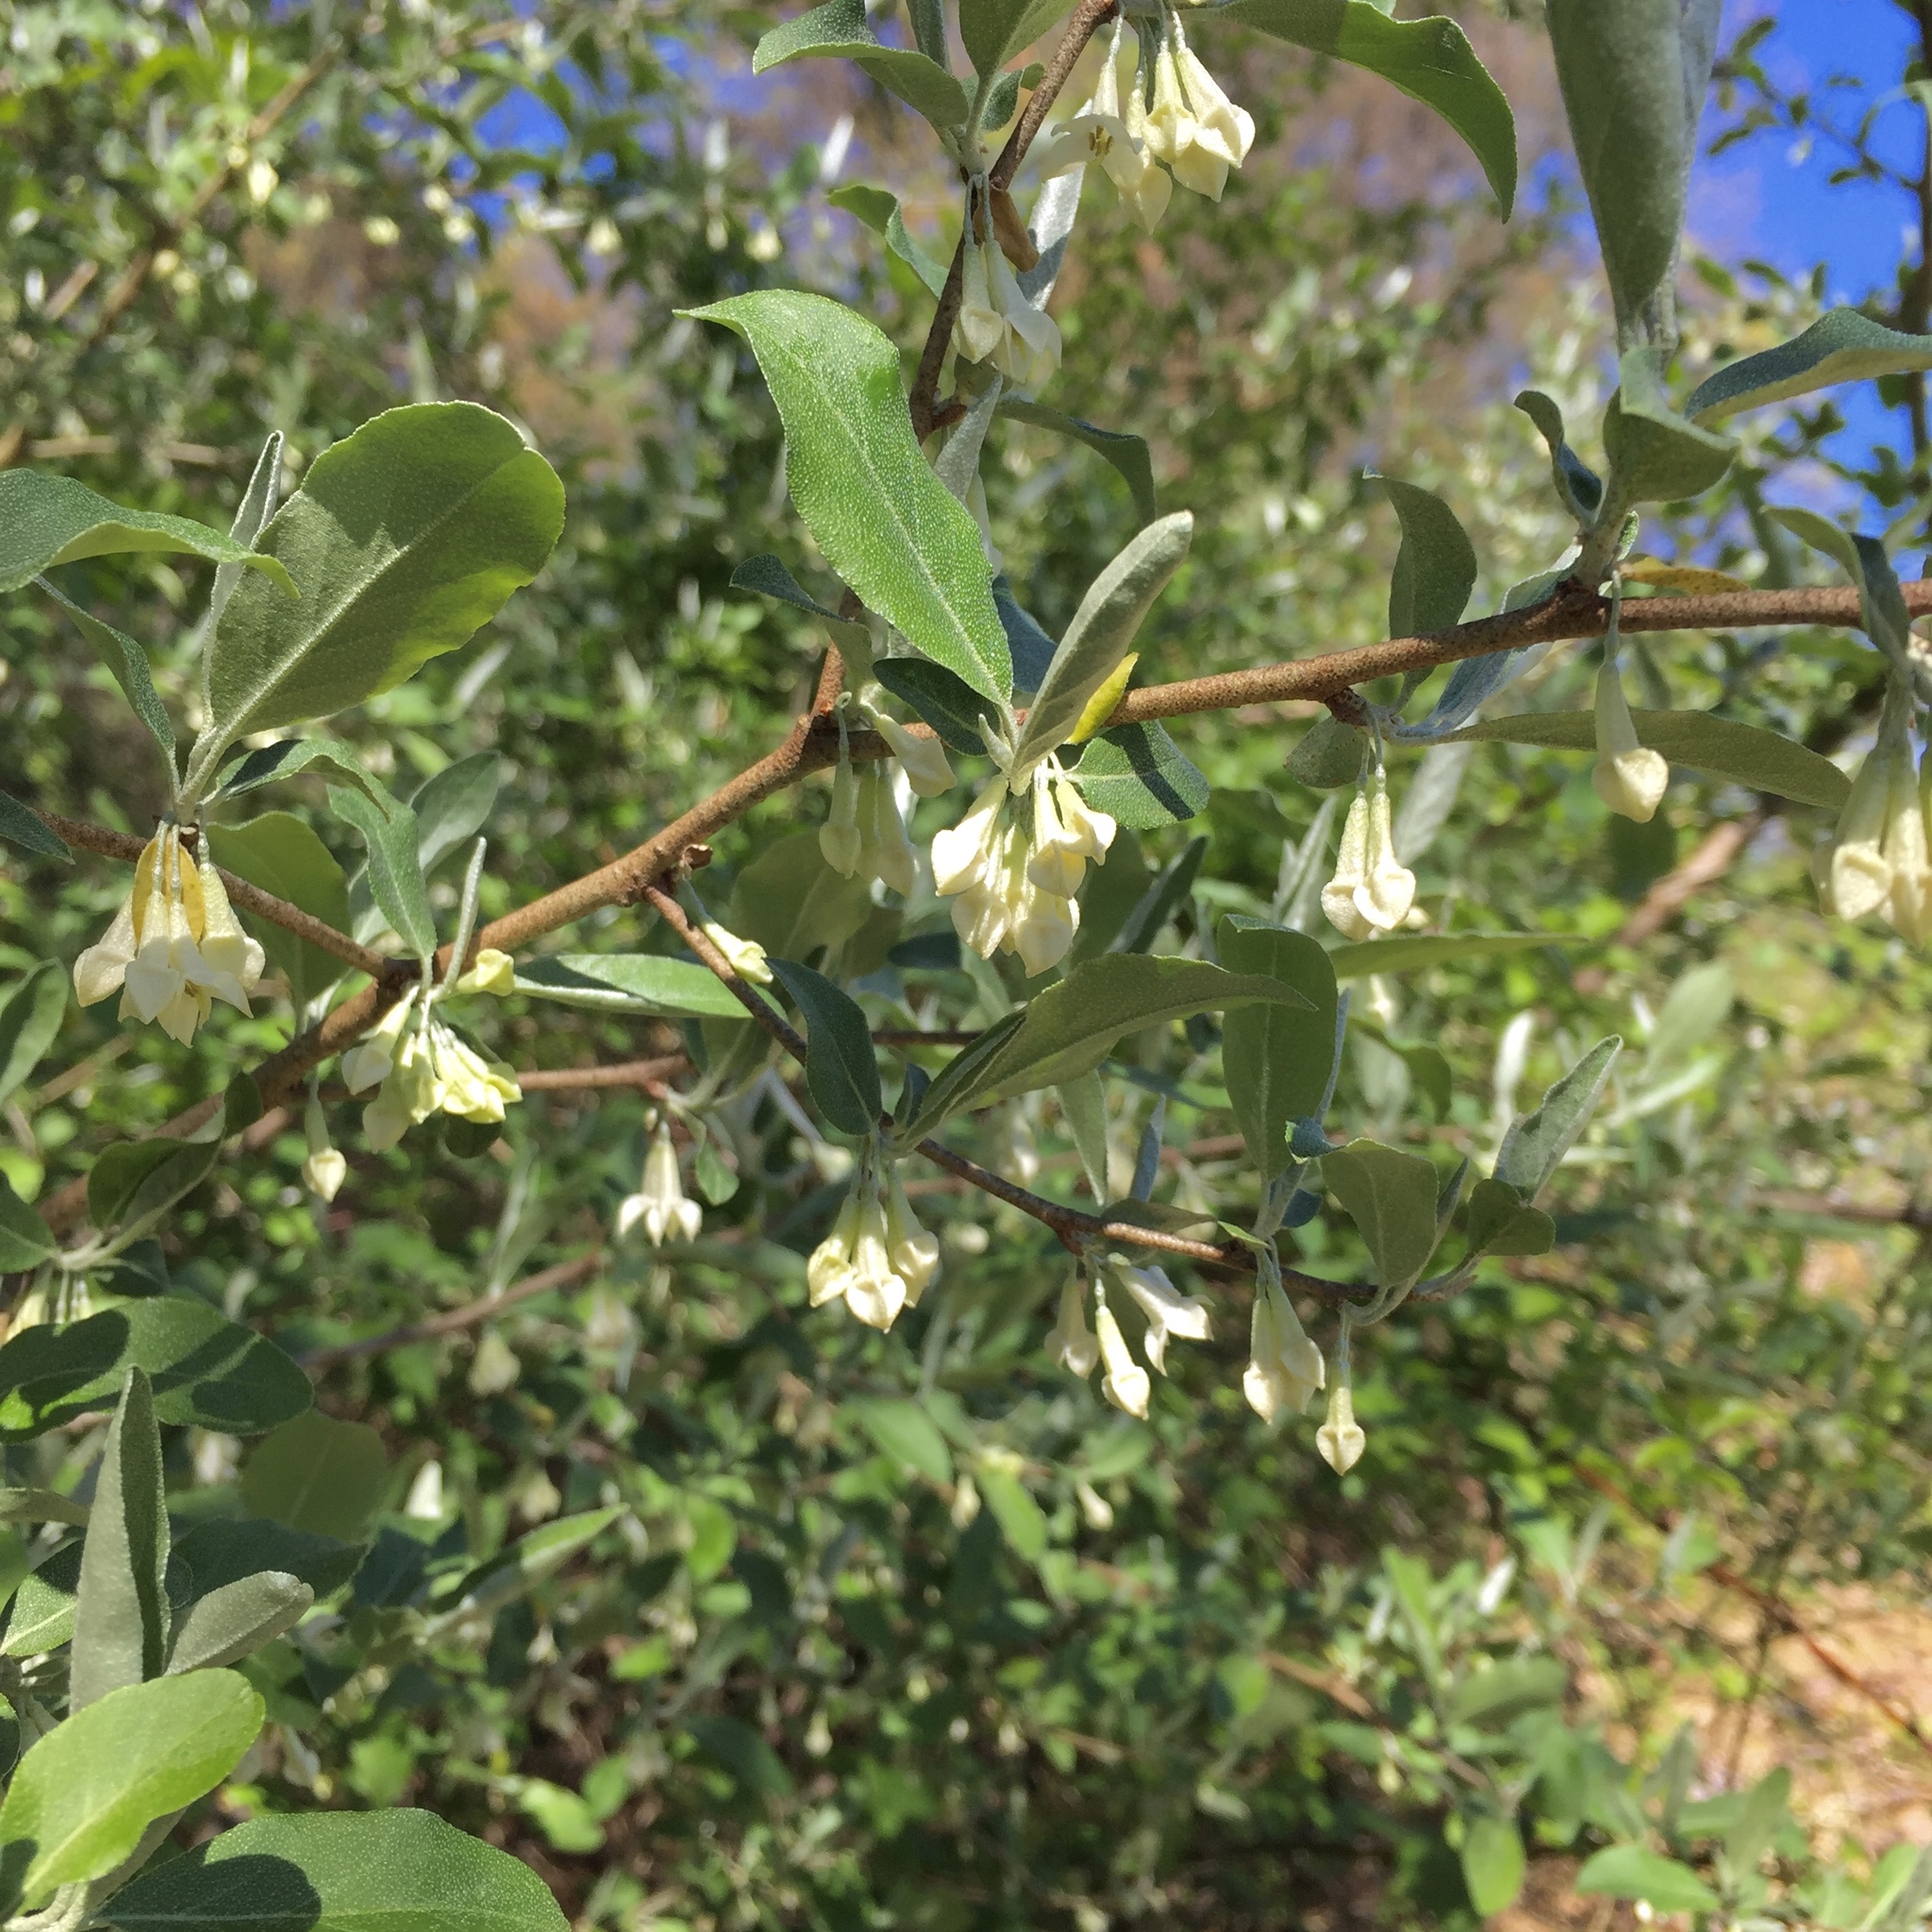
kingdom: Plantae
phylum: Tracheophyta
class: Magnoliopsida
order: Rosales
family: Elaeagnaceae
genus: Elaeagnus
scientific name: Elaeagnus umbellata
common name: Autumn olive
